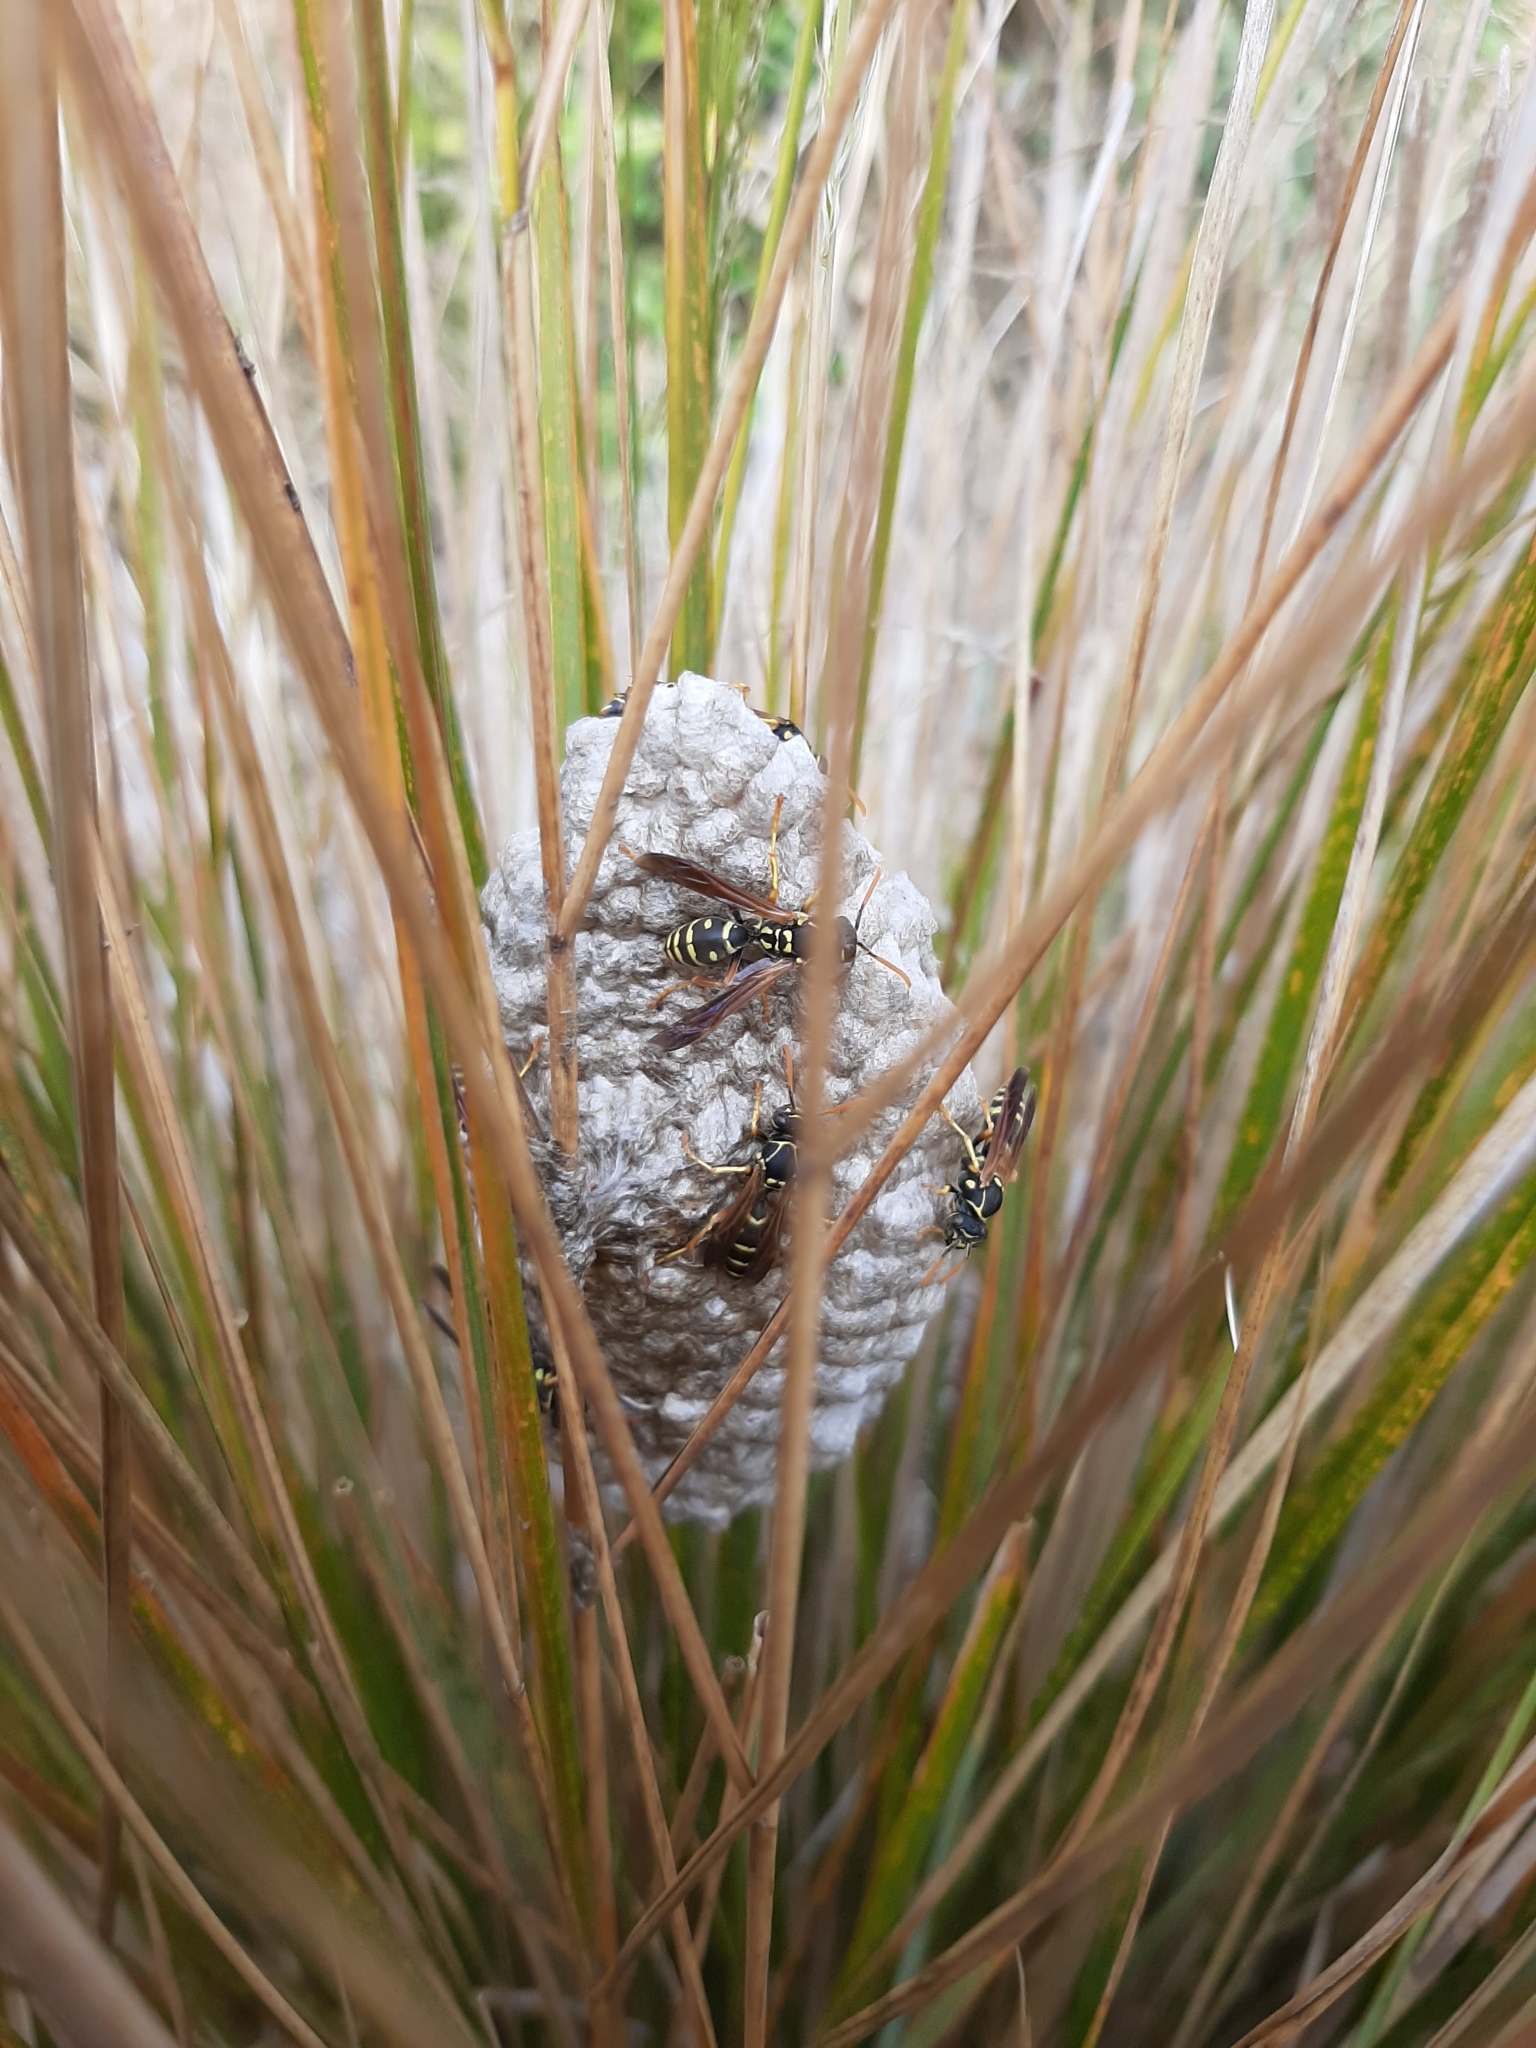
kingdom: Animalia
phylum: Arthropoda
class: Insecta
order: Hymenoptera
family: Eumenidae
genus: Polistes
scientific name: Polistes chinensis
